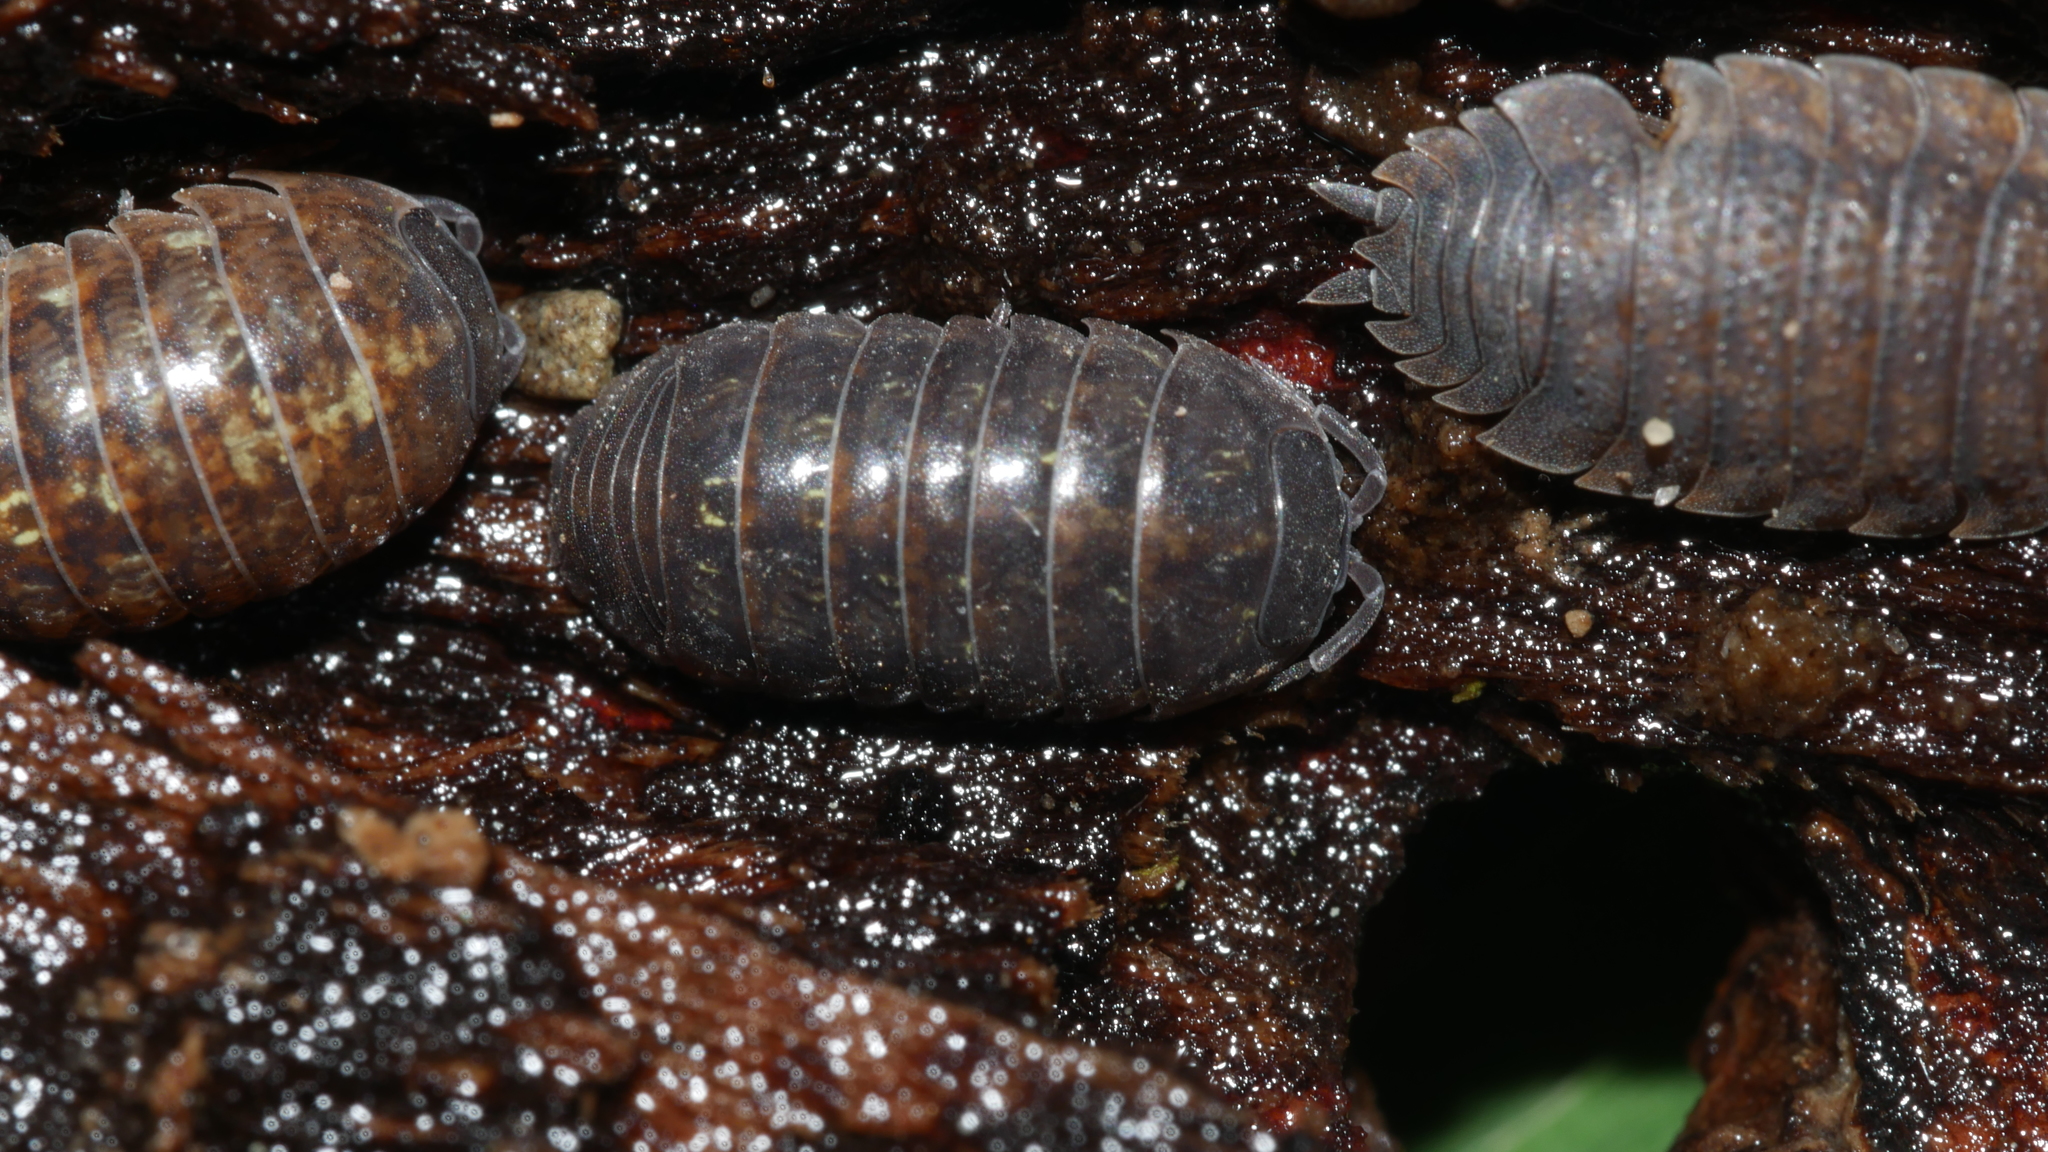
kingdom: Animalia
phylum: Arthropoda
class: Malacostraca
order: Isopoda
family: Armadillidiidae
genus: Armadillidium
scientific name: Armadillidium vulgare
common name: Common pill woodlouse
